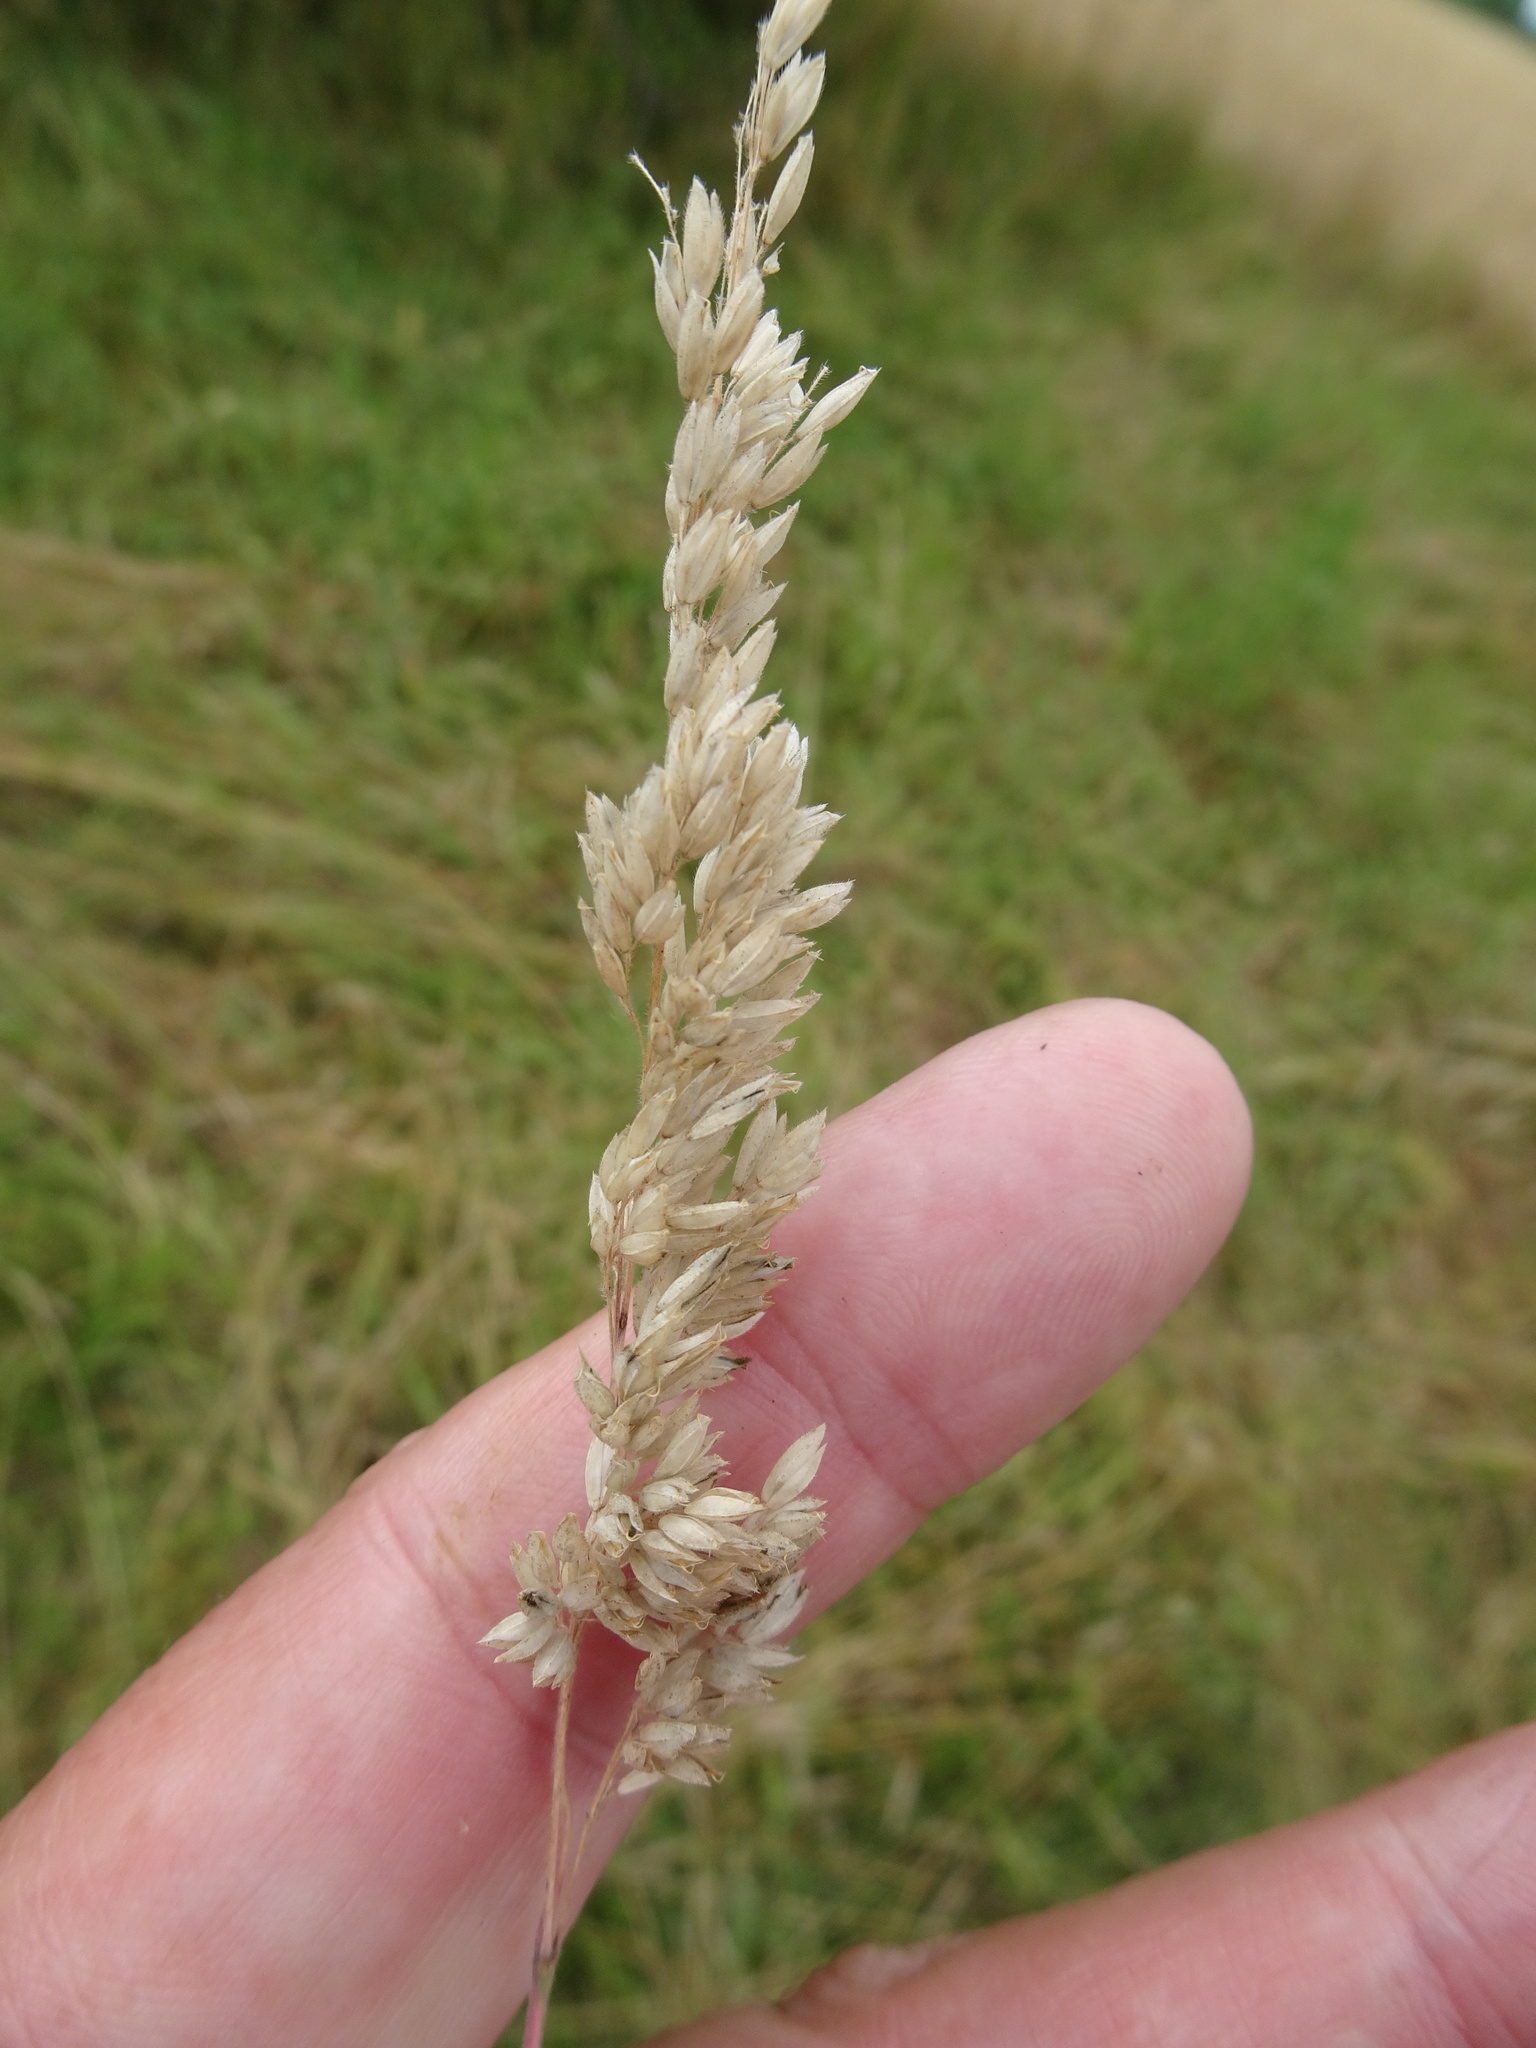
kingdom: Plantae
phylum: Tracheophyta
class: Liliopsida
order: Poales
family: Poaceae
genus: Holcus
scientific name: Holcus lanatus
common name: Yorkshire-fog
